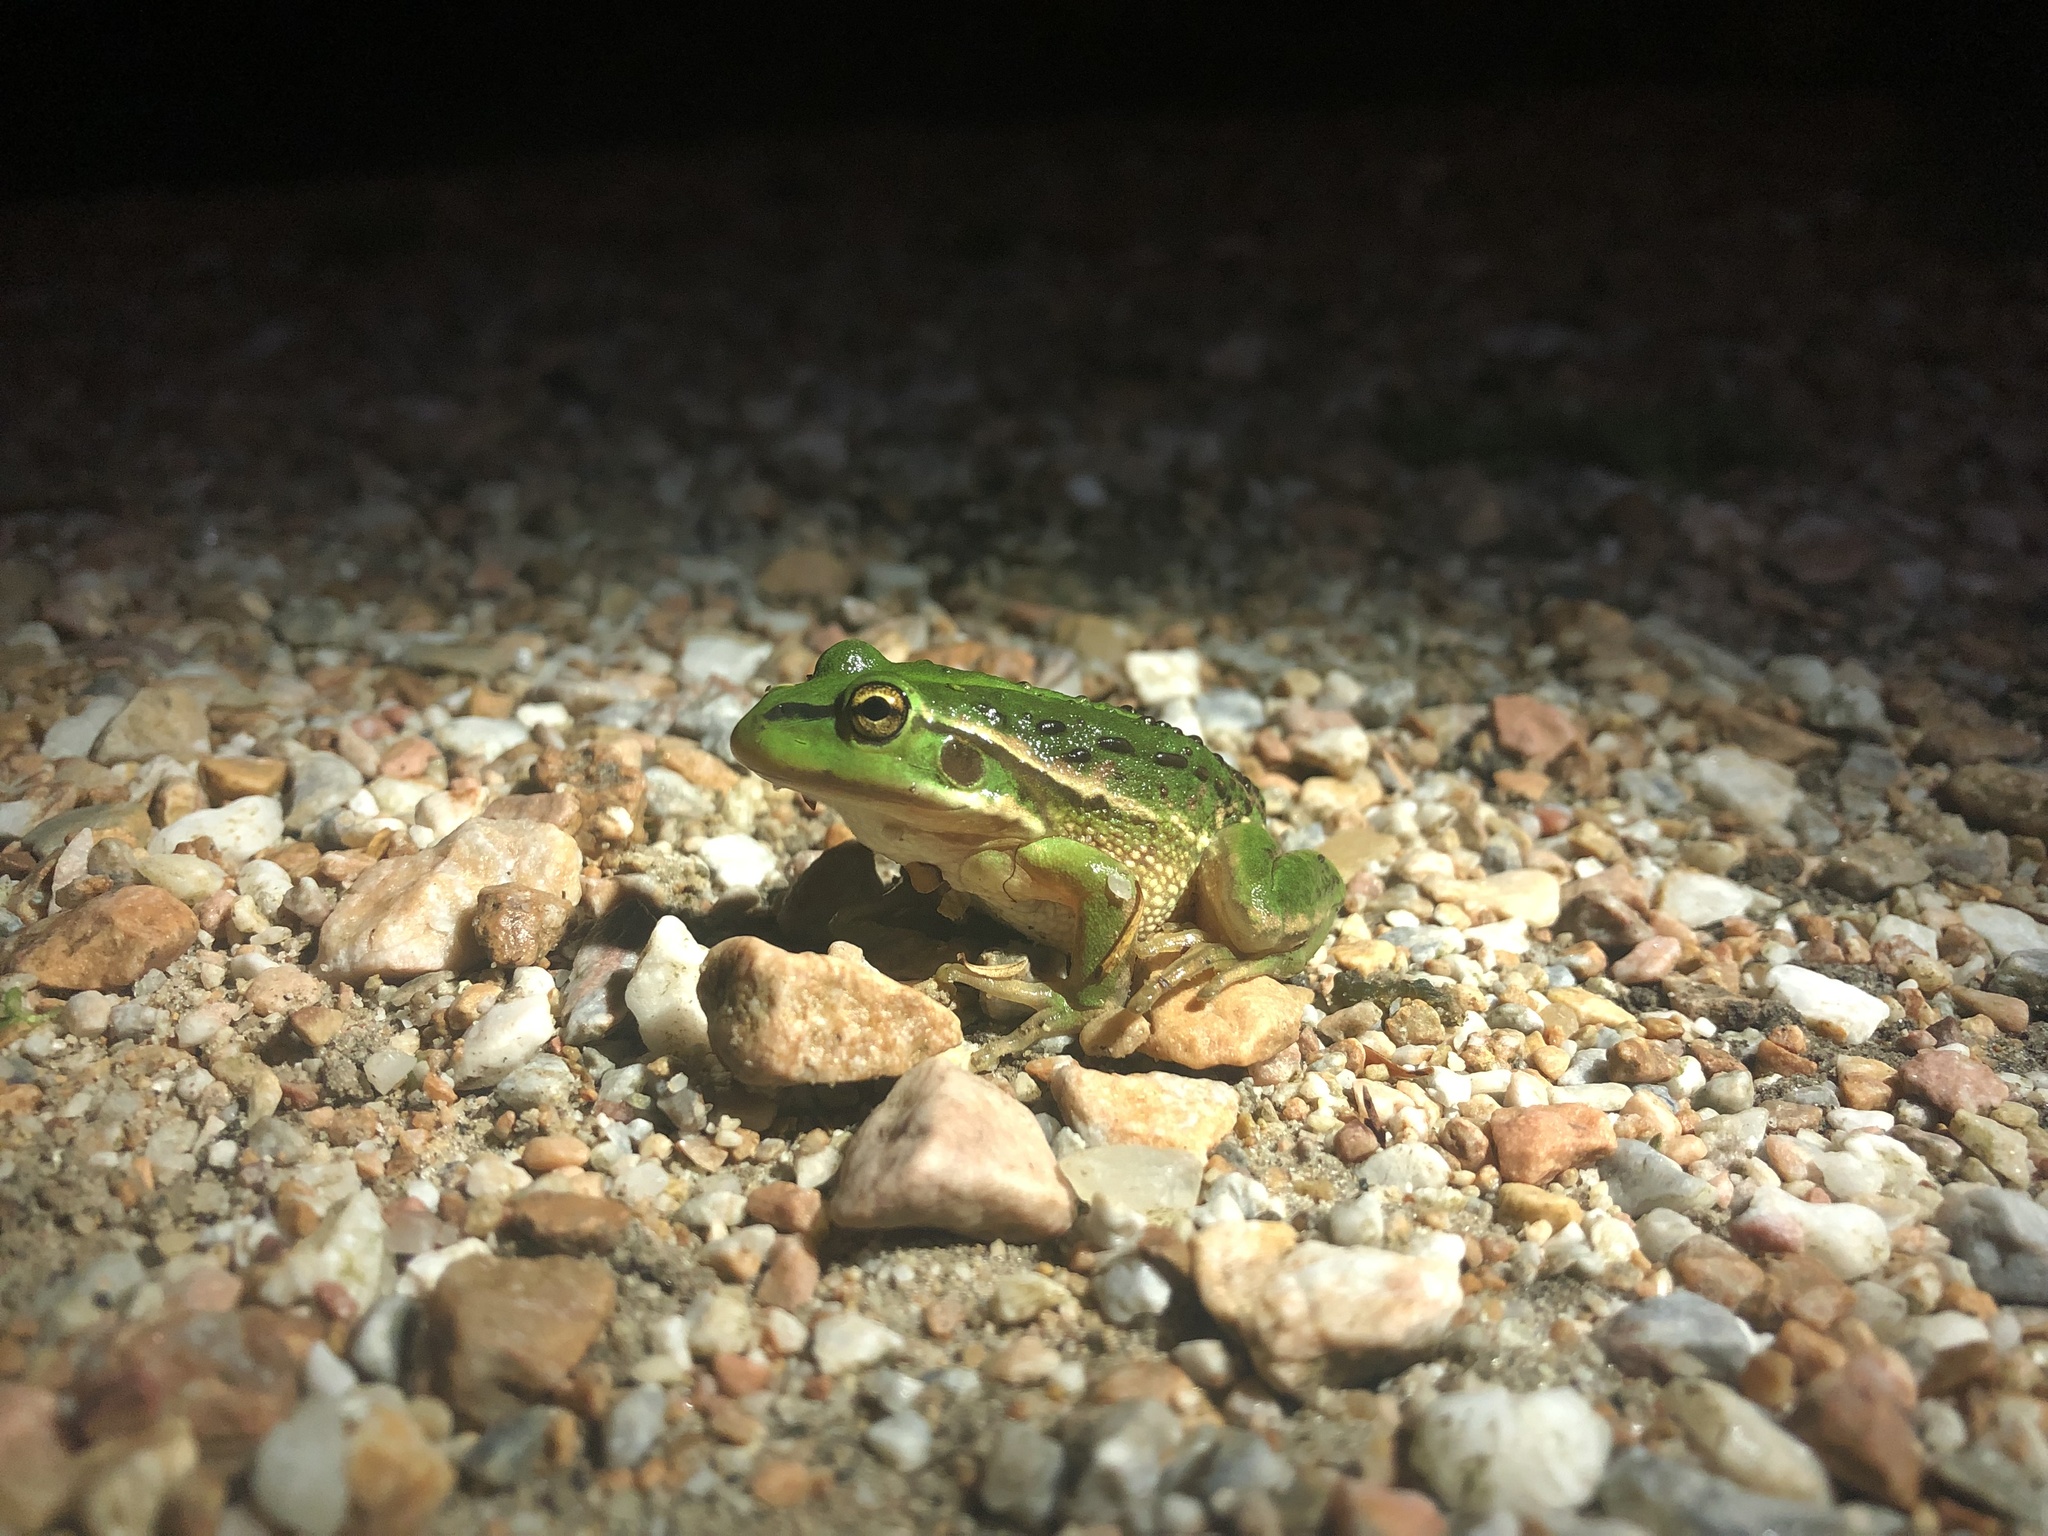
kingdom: Animalia
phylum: Chordata
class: Amphibia
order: Anura
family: Pelodryadidae
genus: Ranoidea
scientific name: Ranoidea raniformis
